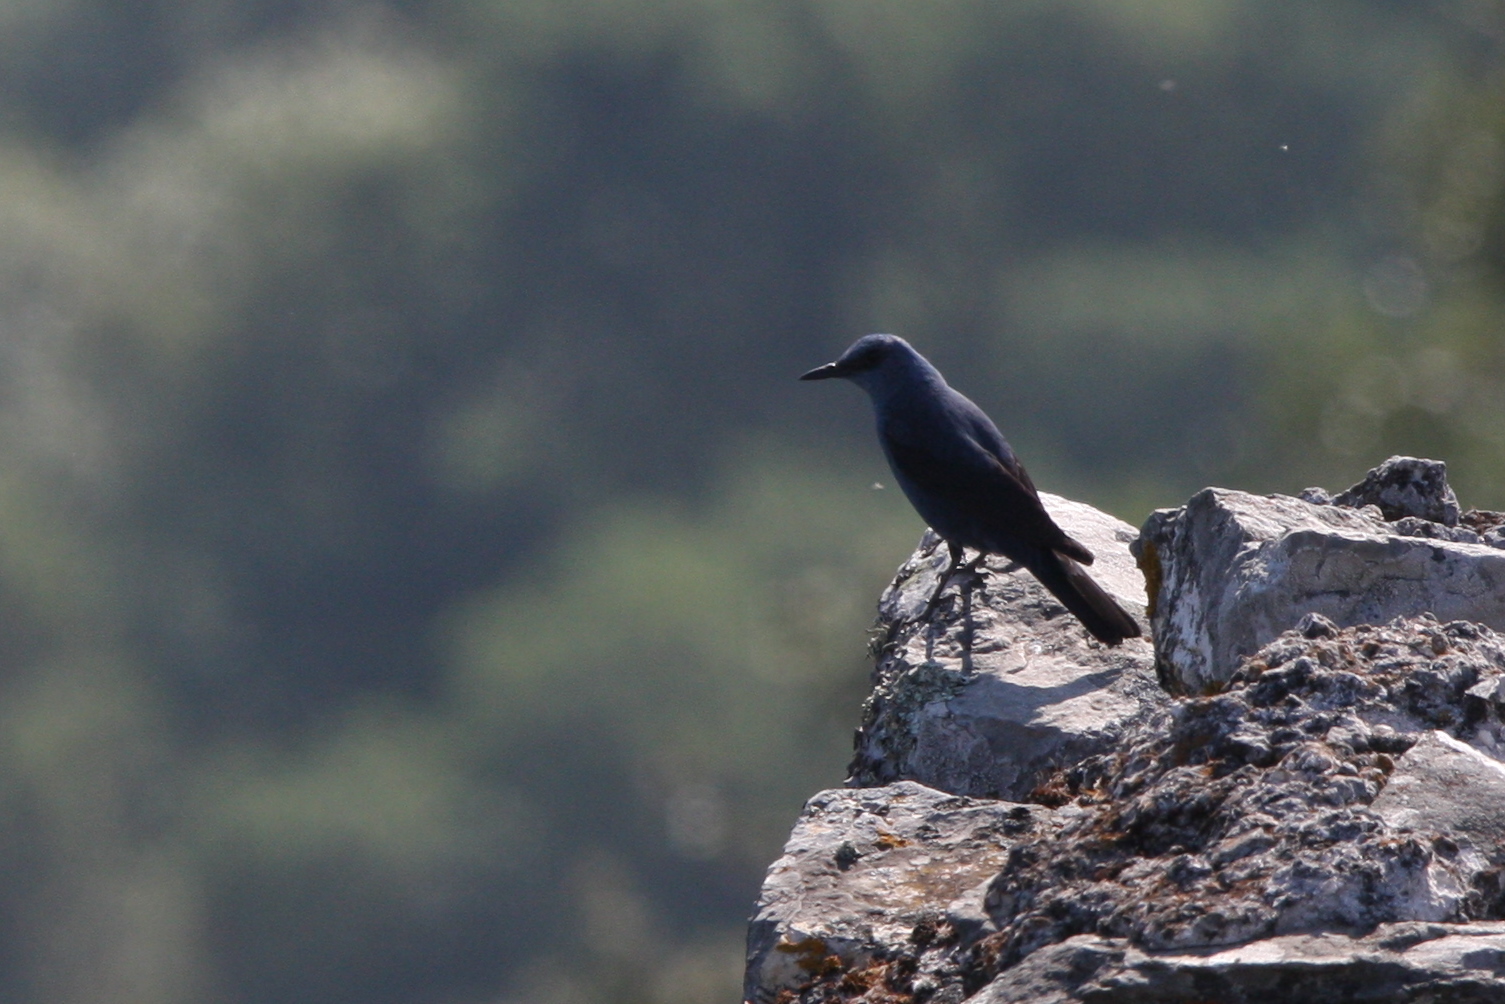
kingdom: Animalia
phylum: Chordata
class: Aves
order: Passeriformes
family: Muscicapidae
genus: Monticola
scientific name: Monticola solitarius
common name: Blue rock thrush
